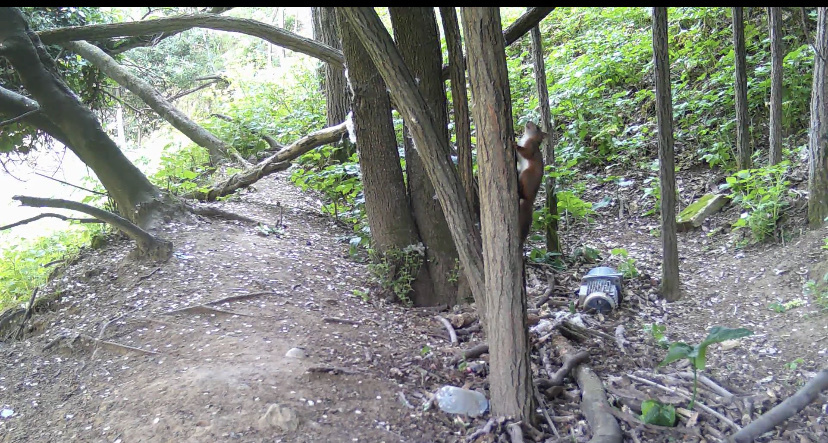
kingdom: Animalia
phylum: Chordata
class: Mammalia
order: Rodentia
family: Sciuridae
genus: Sciurus
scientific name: Sciurus vulgaris
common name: Eurasian red squirrel
